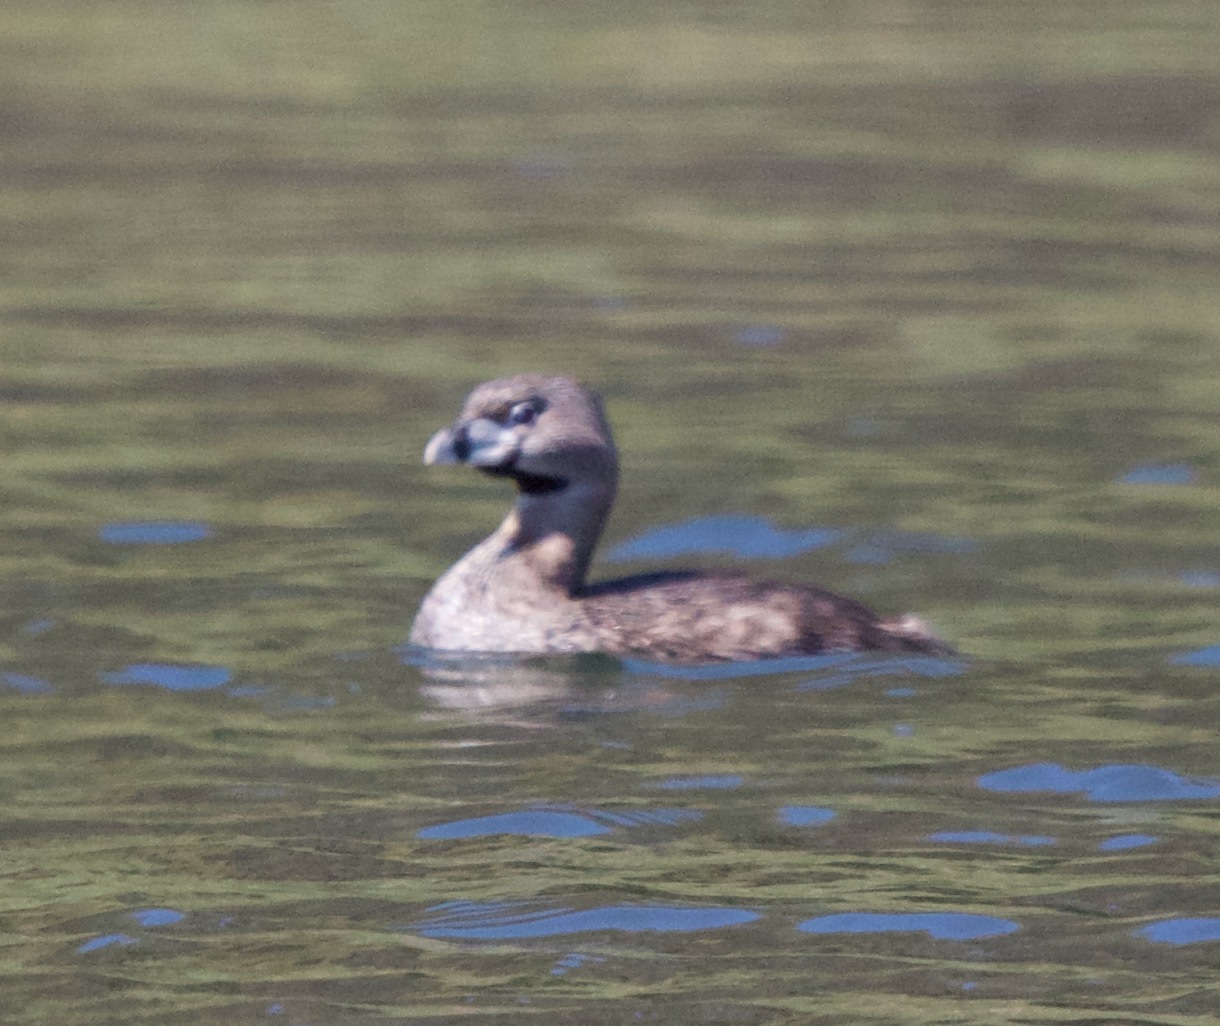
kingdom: Animalia
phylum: Chordata
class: Aves
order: Podicipediformes
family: Podicipedidae
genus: Podilymbus
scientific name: Podilymbus podiceps
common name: Pied-billed grebe
